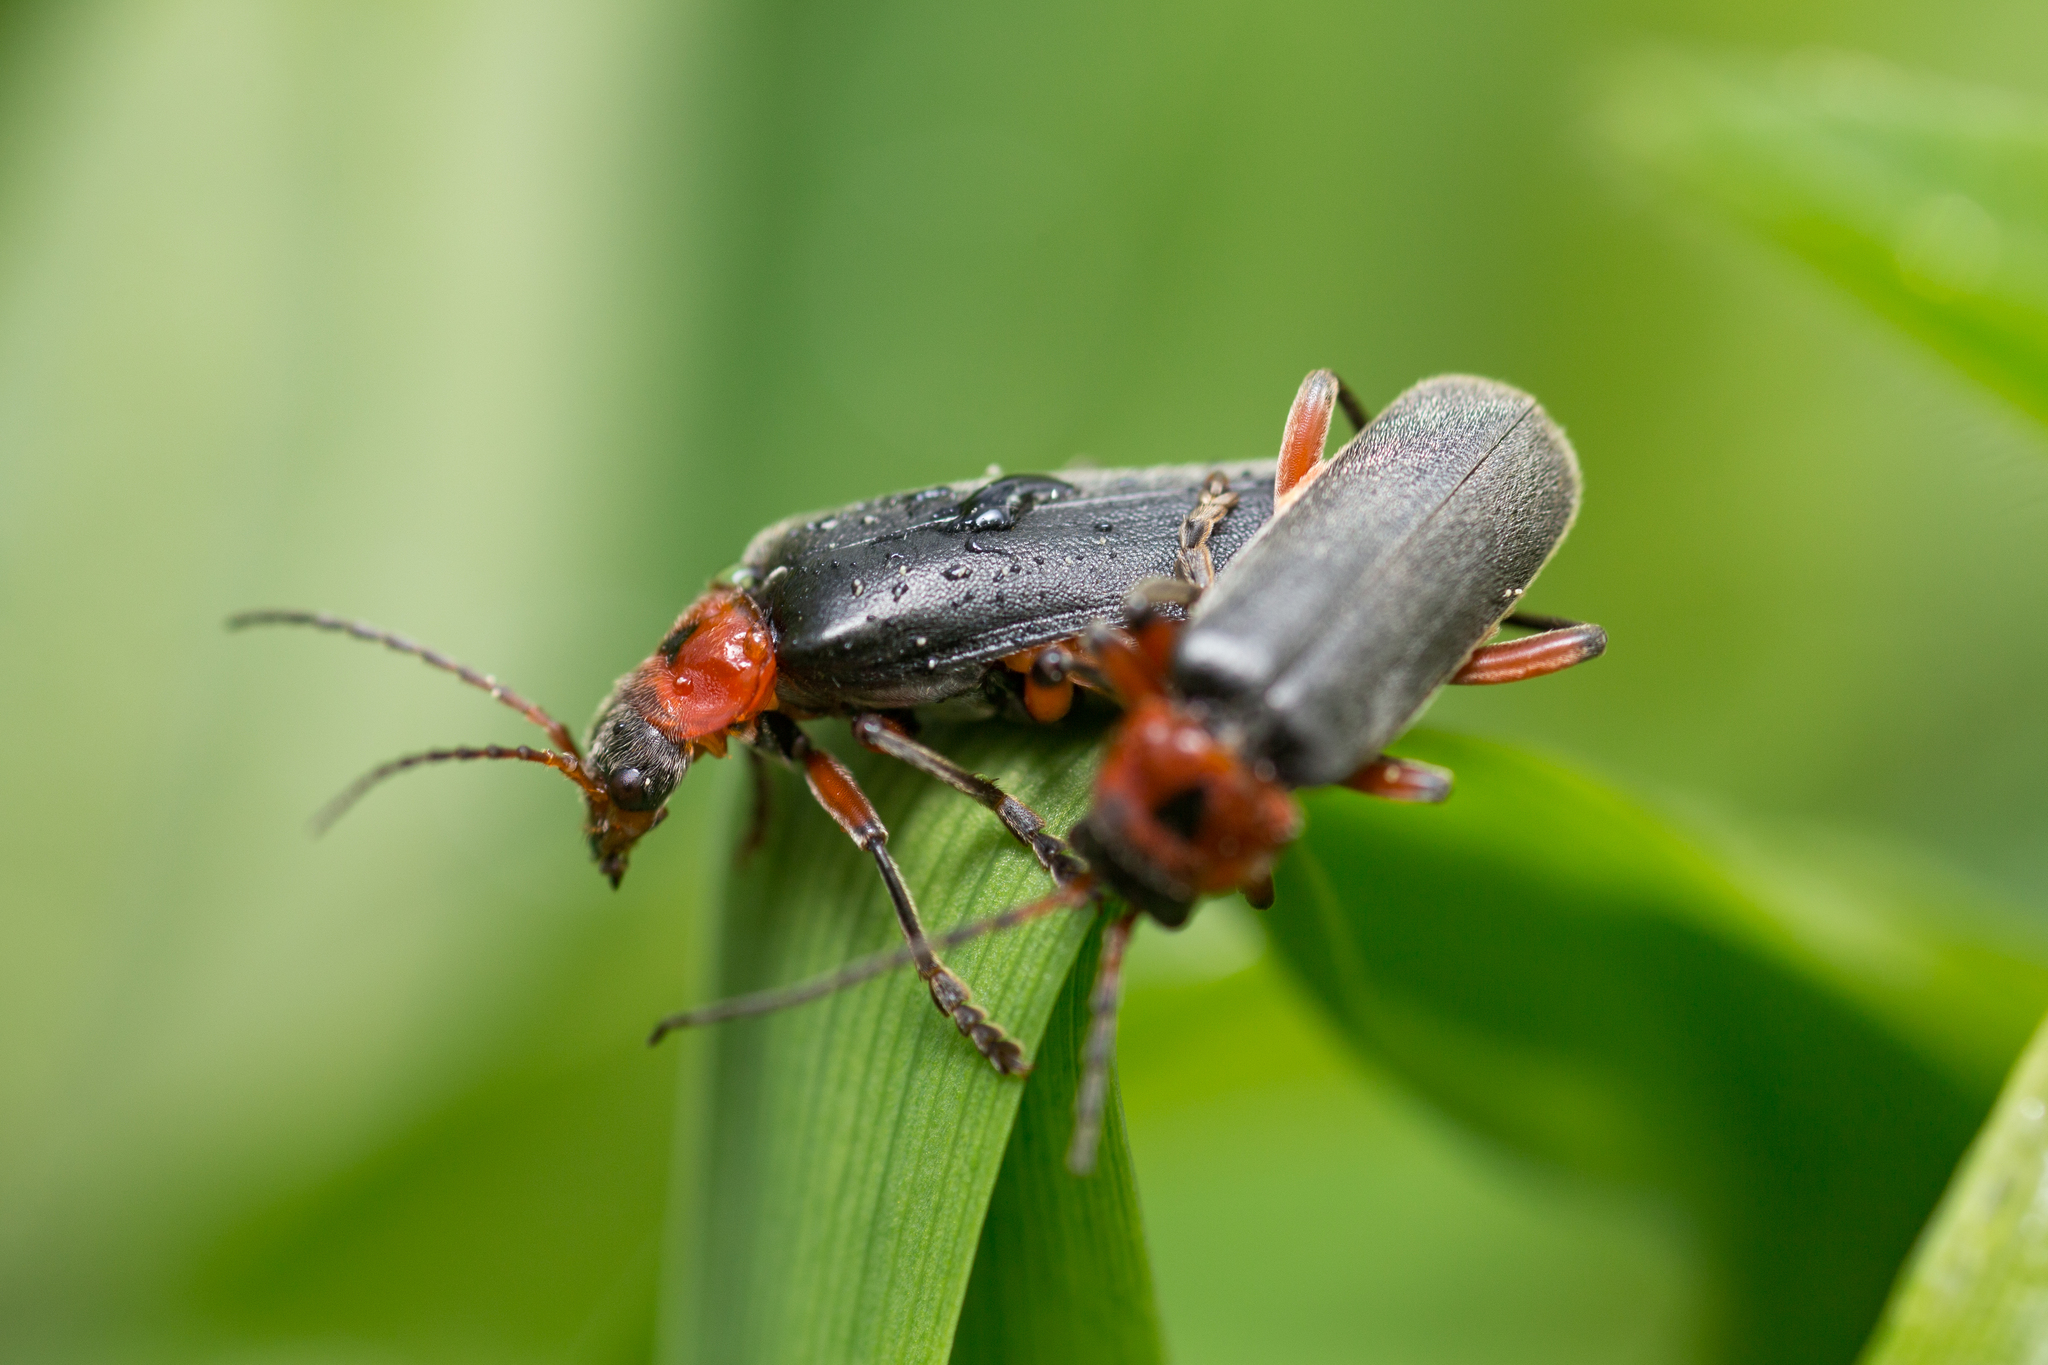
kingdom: Animalia
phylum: Arthropoda
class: Insecta
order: Coleoptera
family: Cantharidae
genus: Cantharis
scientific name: Cantharis rustica
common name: Soldier beetle
